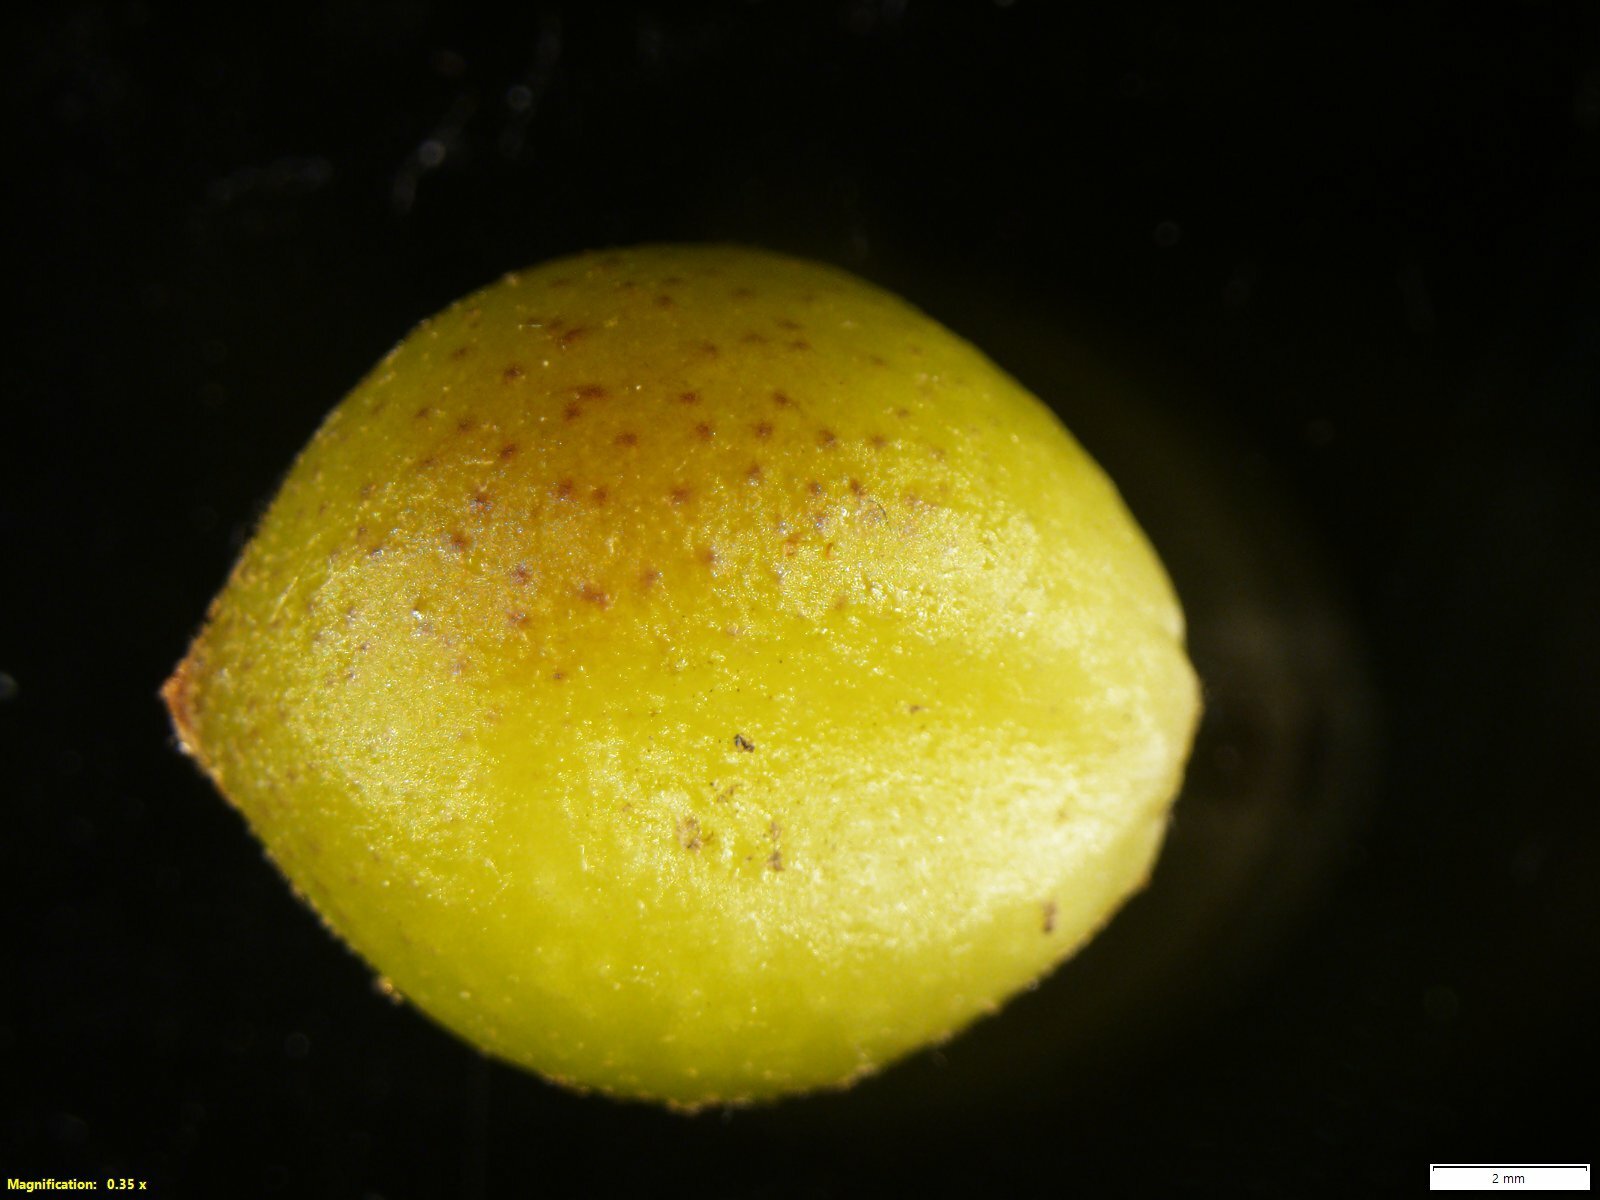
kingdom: Animalia
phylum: Arthropoda
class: Insecta
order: Hymenoptera
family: Cynipidae
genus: Amphibolips
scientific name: Amphibolips
